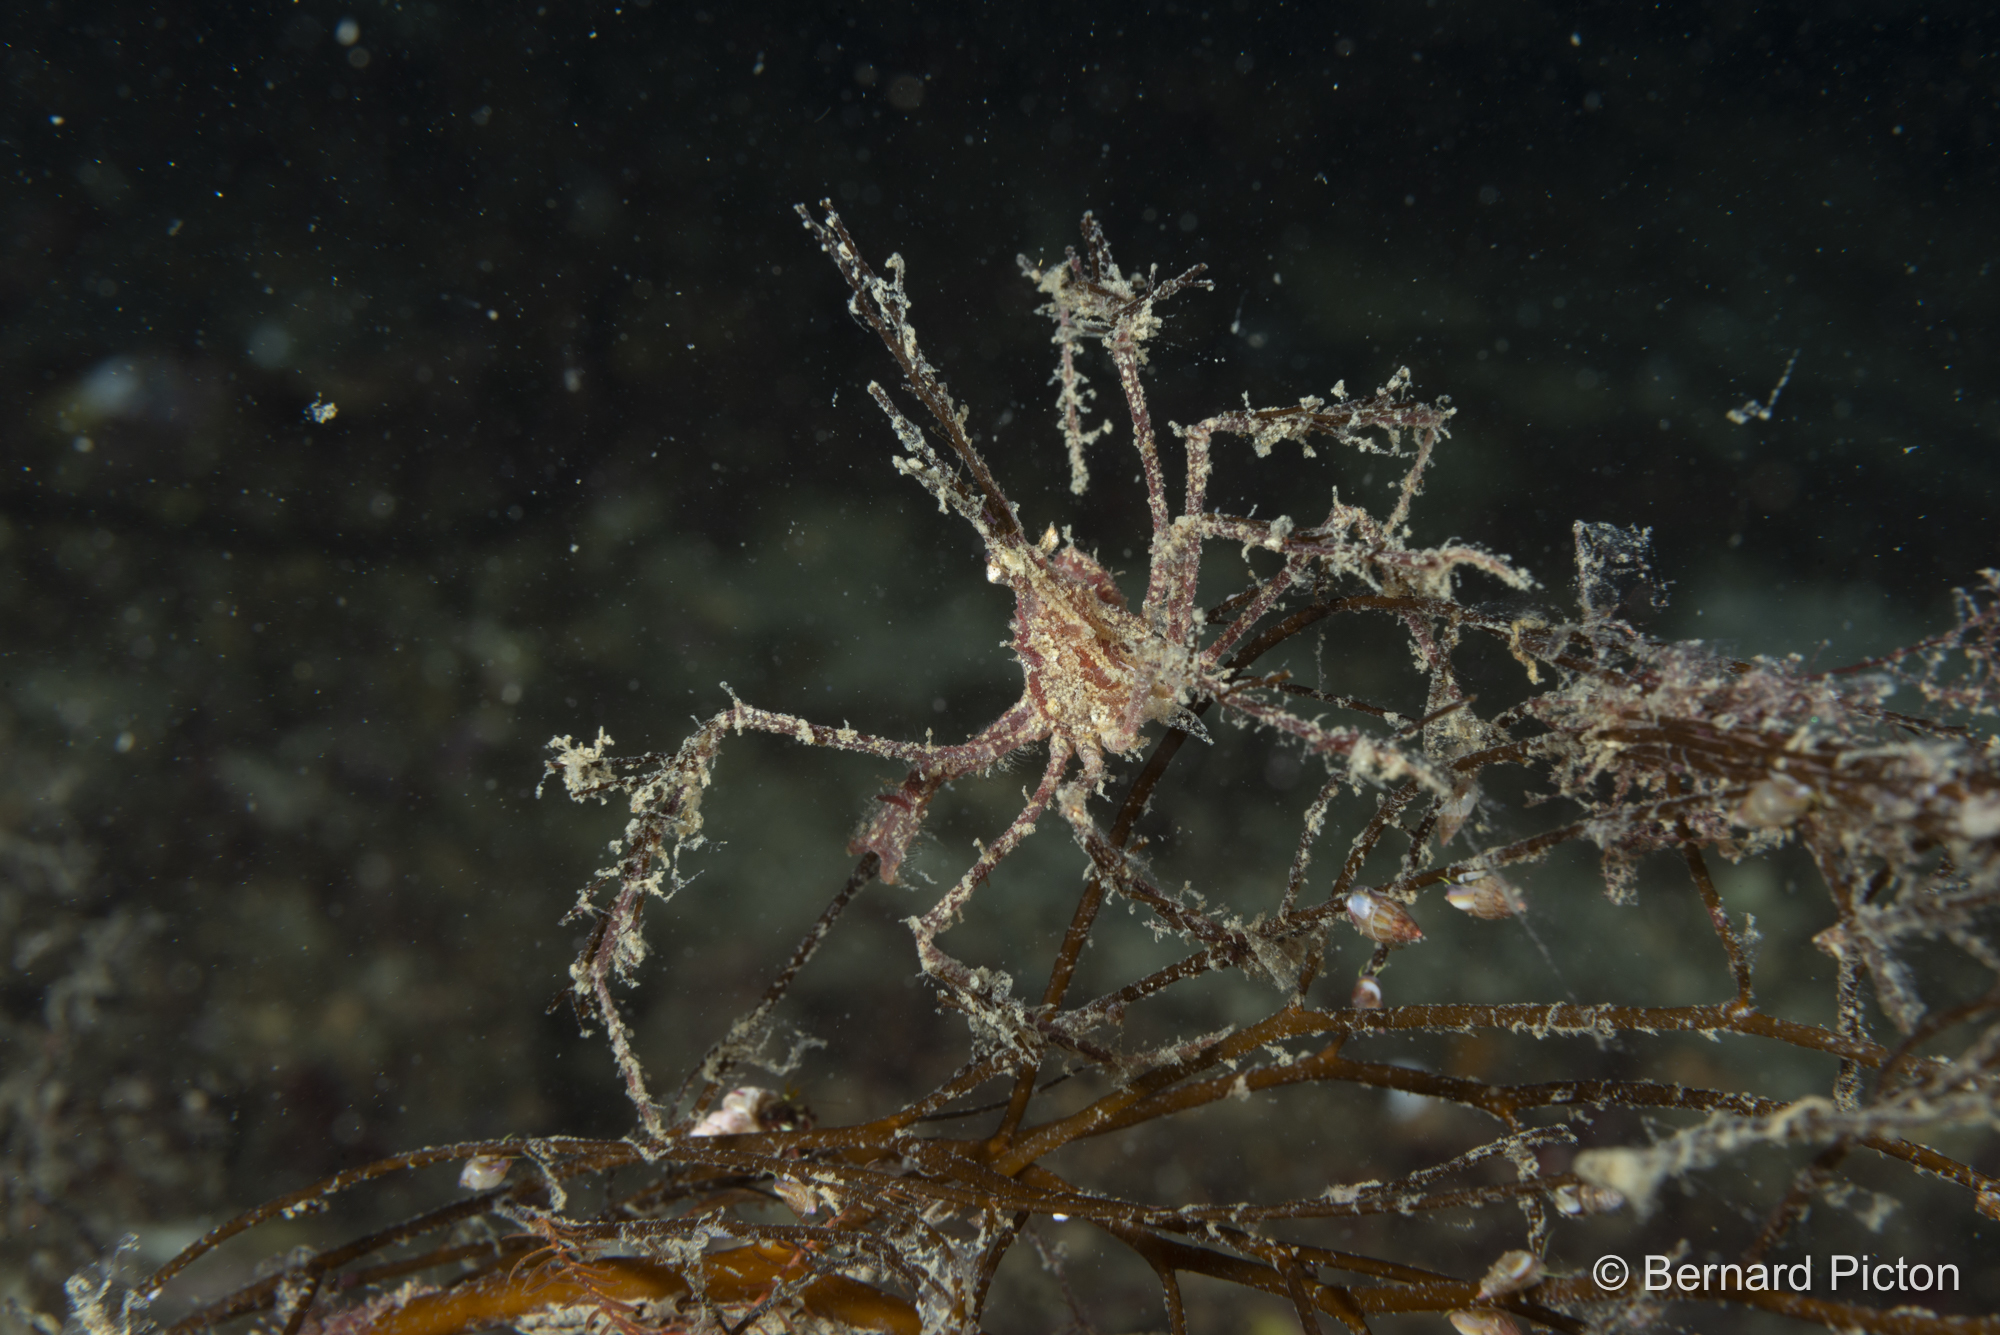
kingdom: Animalia
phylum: Arthropoda
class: Malacostraca
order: Decapoda
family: Inachidae
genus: Macropodia
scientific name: Macropodia rostrata
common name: Long-legged spider crab
